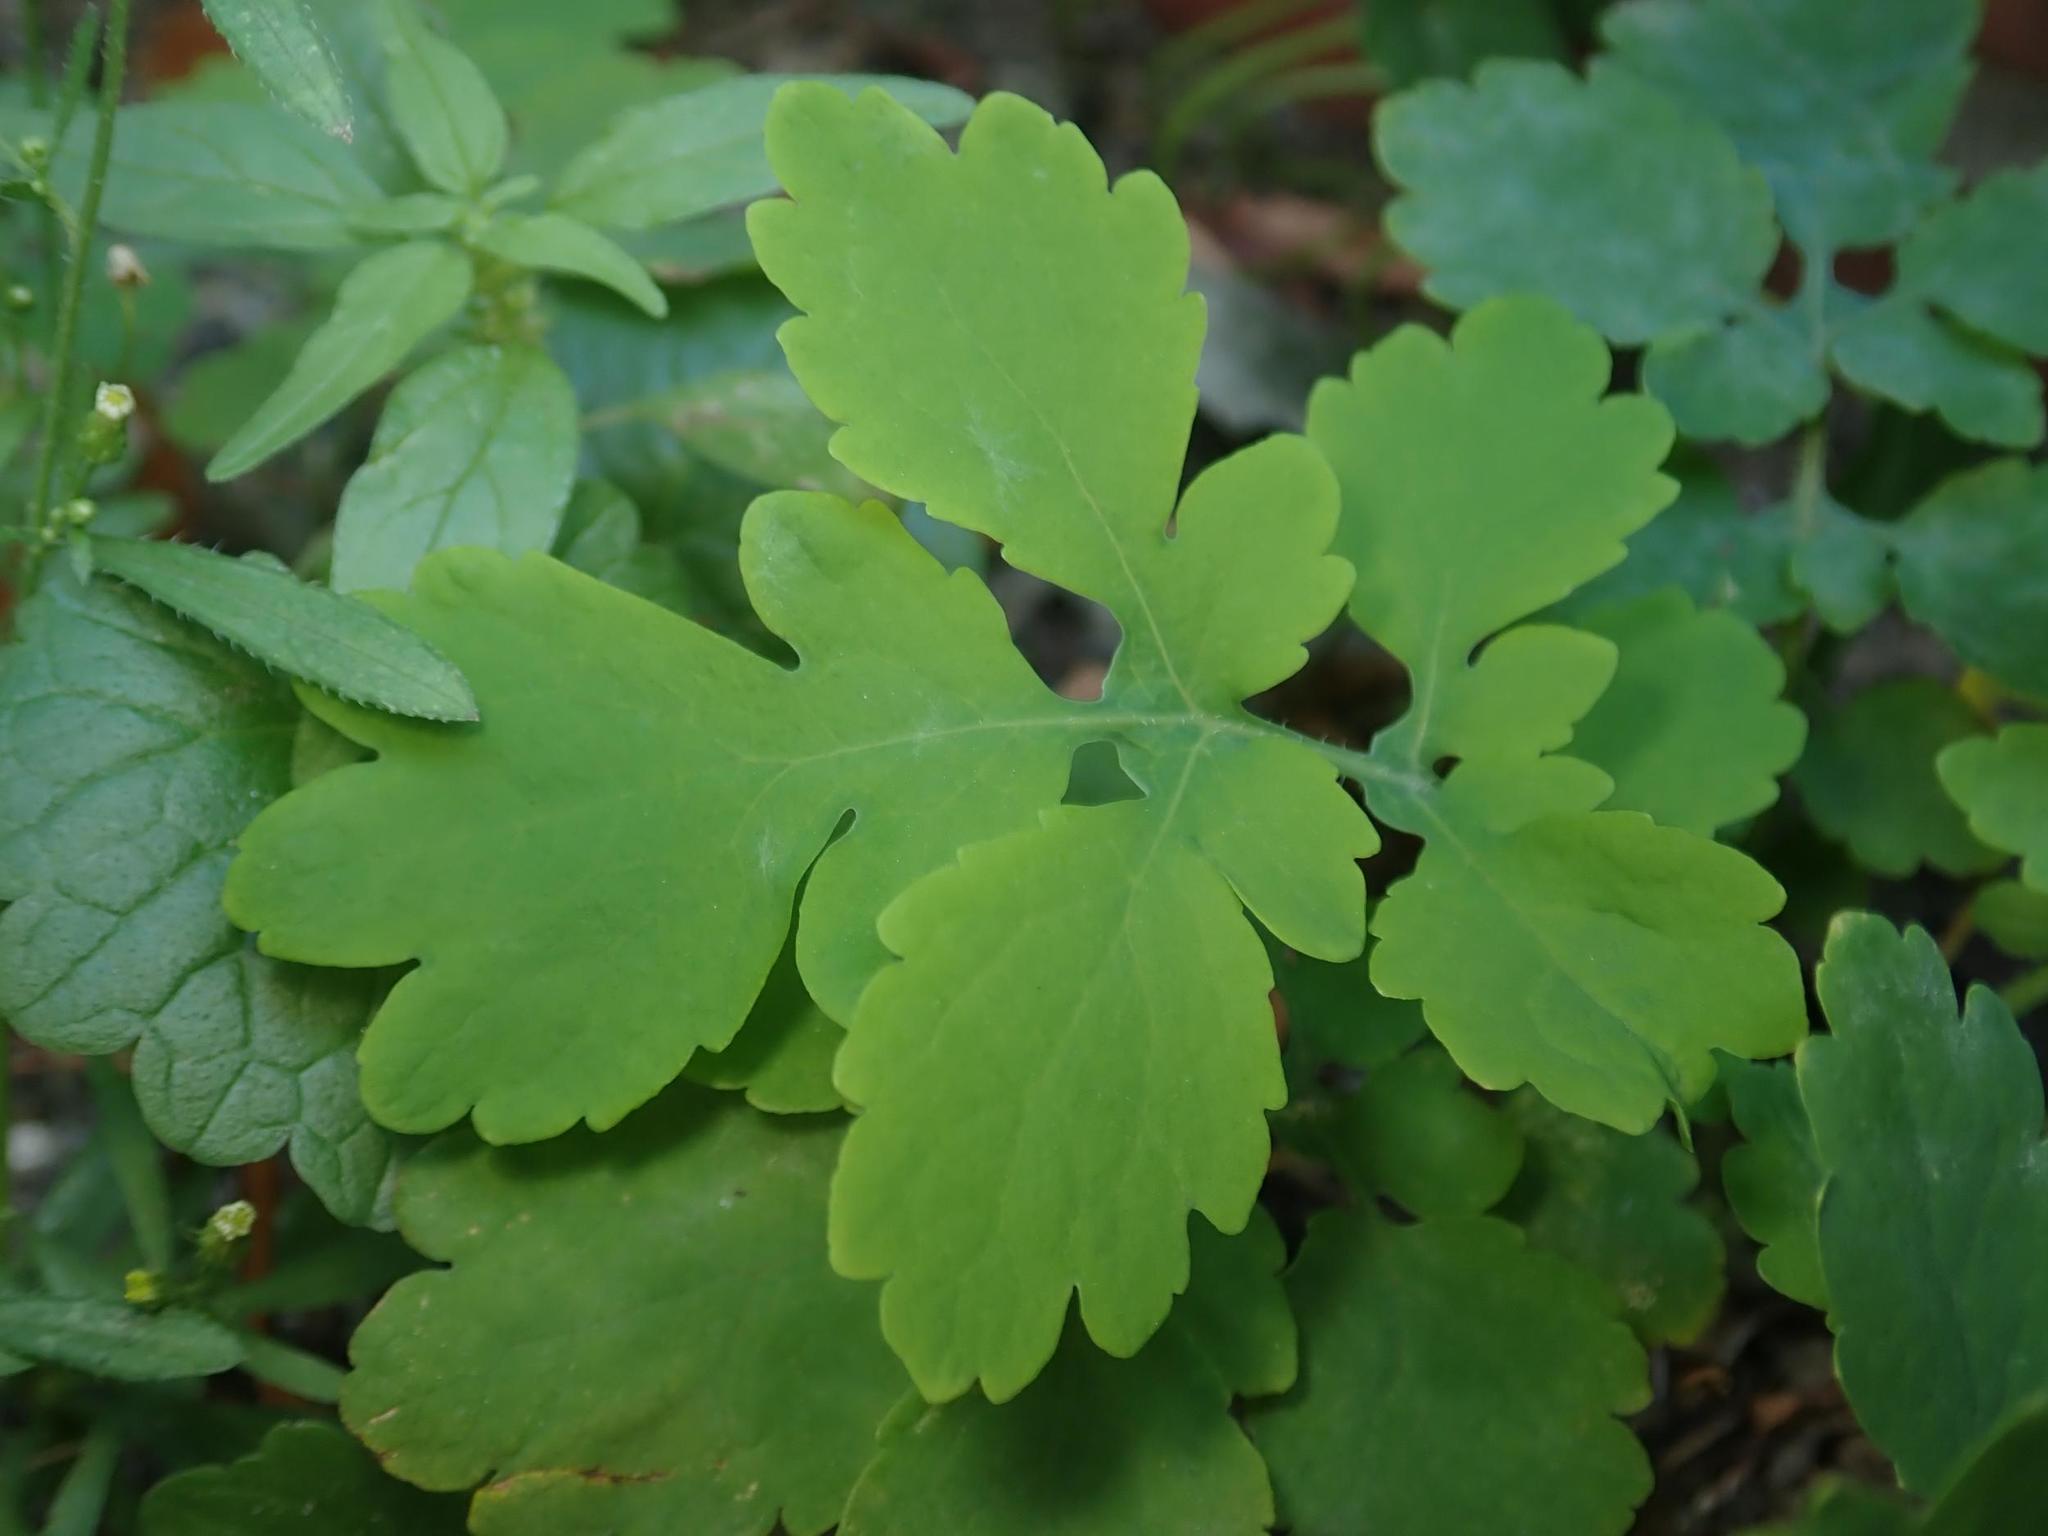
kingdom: Plantae
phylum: Tracheophyta
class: Magnoliopsida
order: Ranunculales
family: Papaveraceae
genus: Chelidonium
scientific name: Chelidonium majus
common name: Greater celandine
